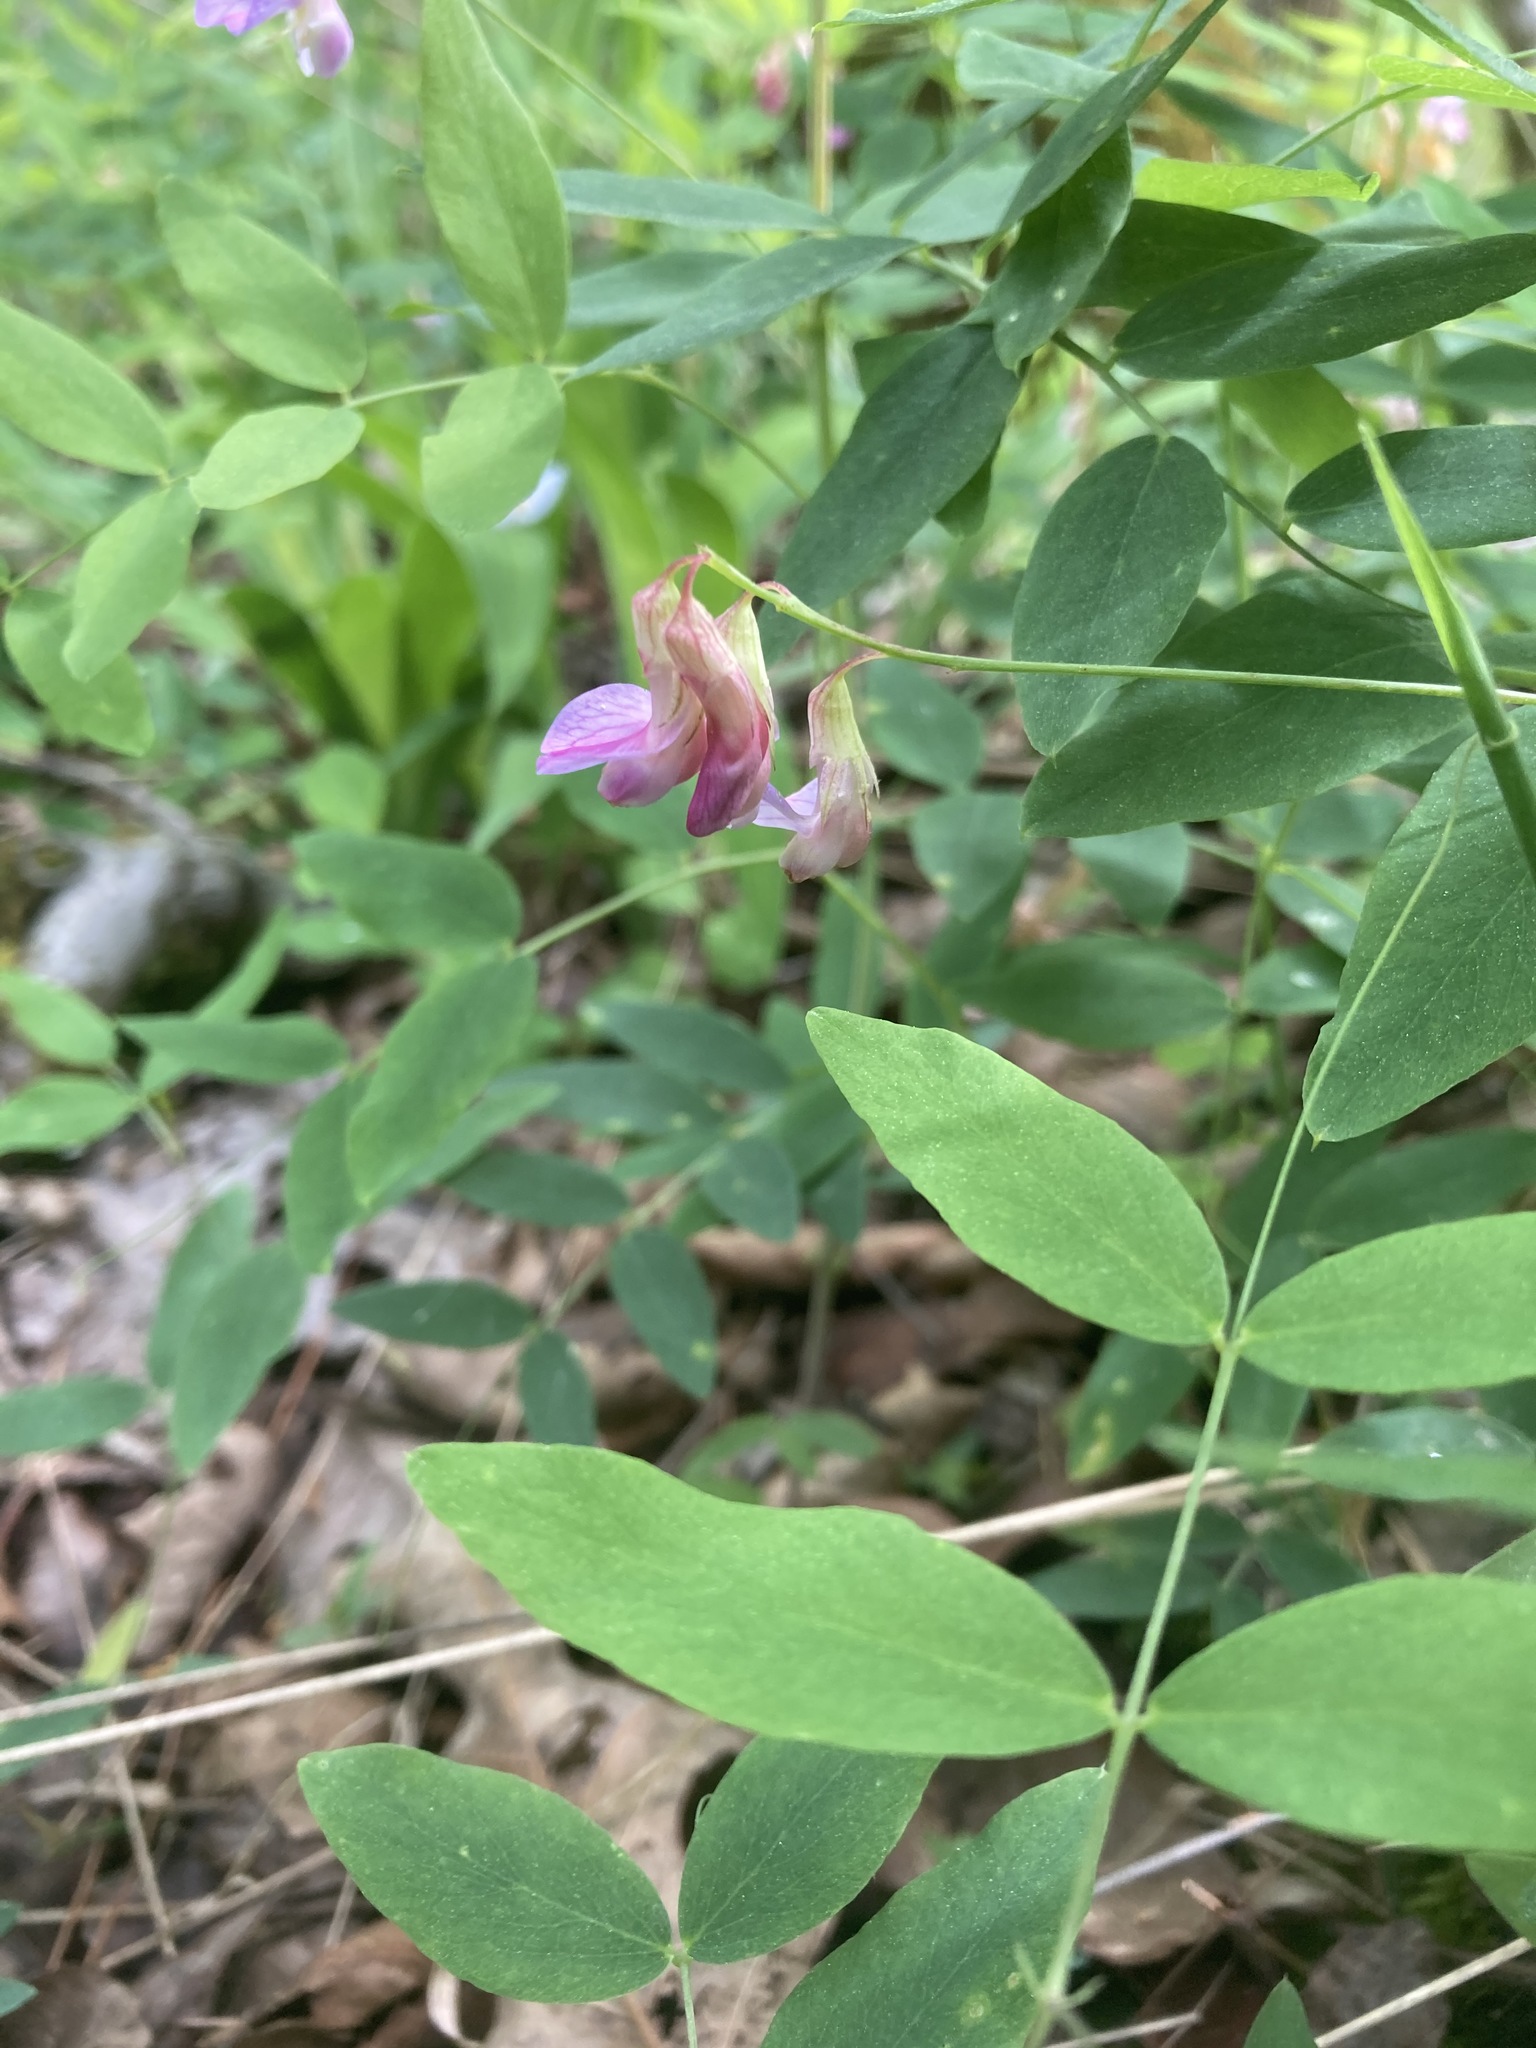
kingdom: Plantae
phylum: Tracheophyta
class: Magnoliopsida
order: Fabales
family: Fabaceae
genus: Lathyrus
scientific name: Lathyrus venosus
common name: Forest-pea
